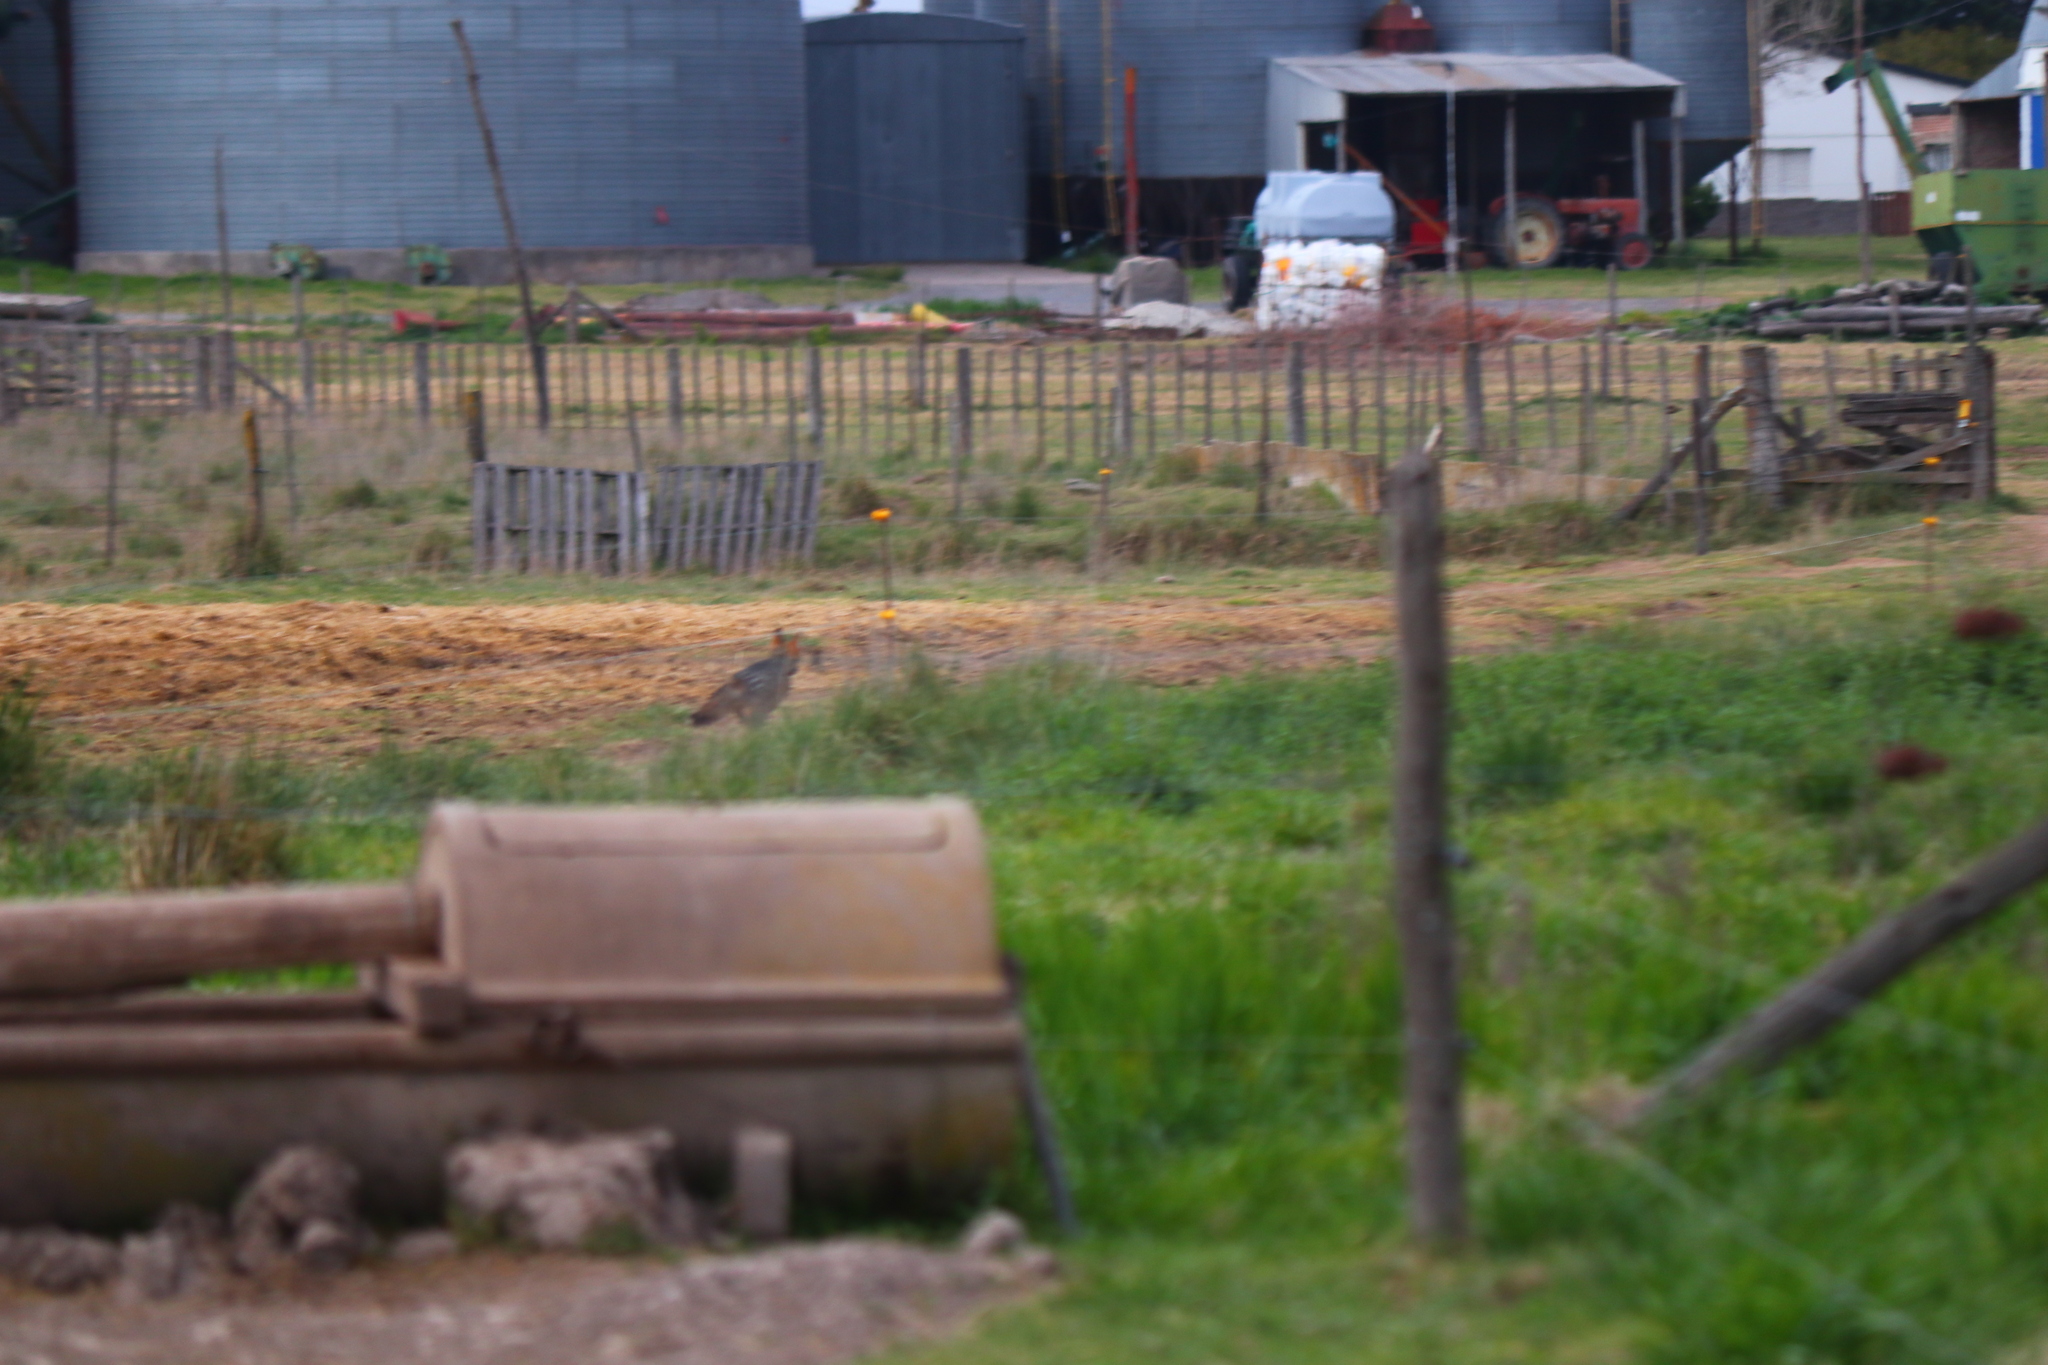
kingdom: Animalia
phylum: Chordata
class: Mammalia
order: Carnivora
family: Canidae
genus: Lycalopex
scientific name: Lycalopex gymnocercus
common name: Pampas fox
